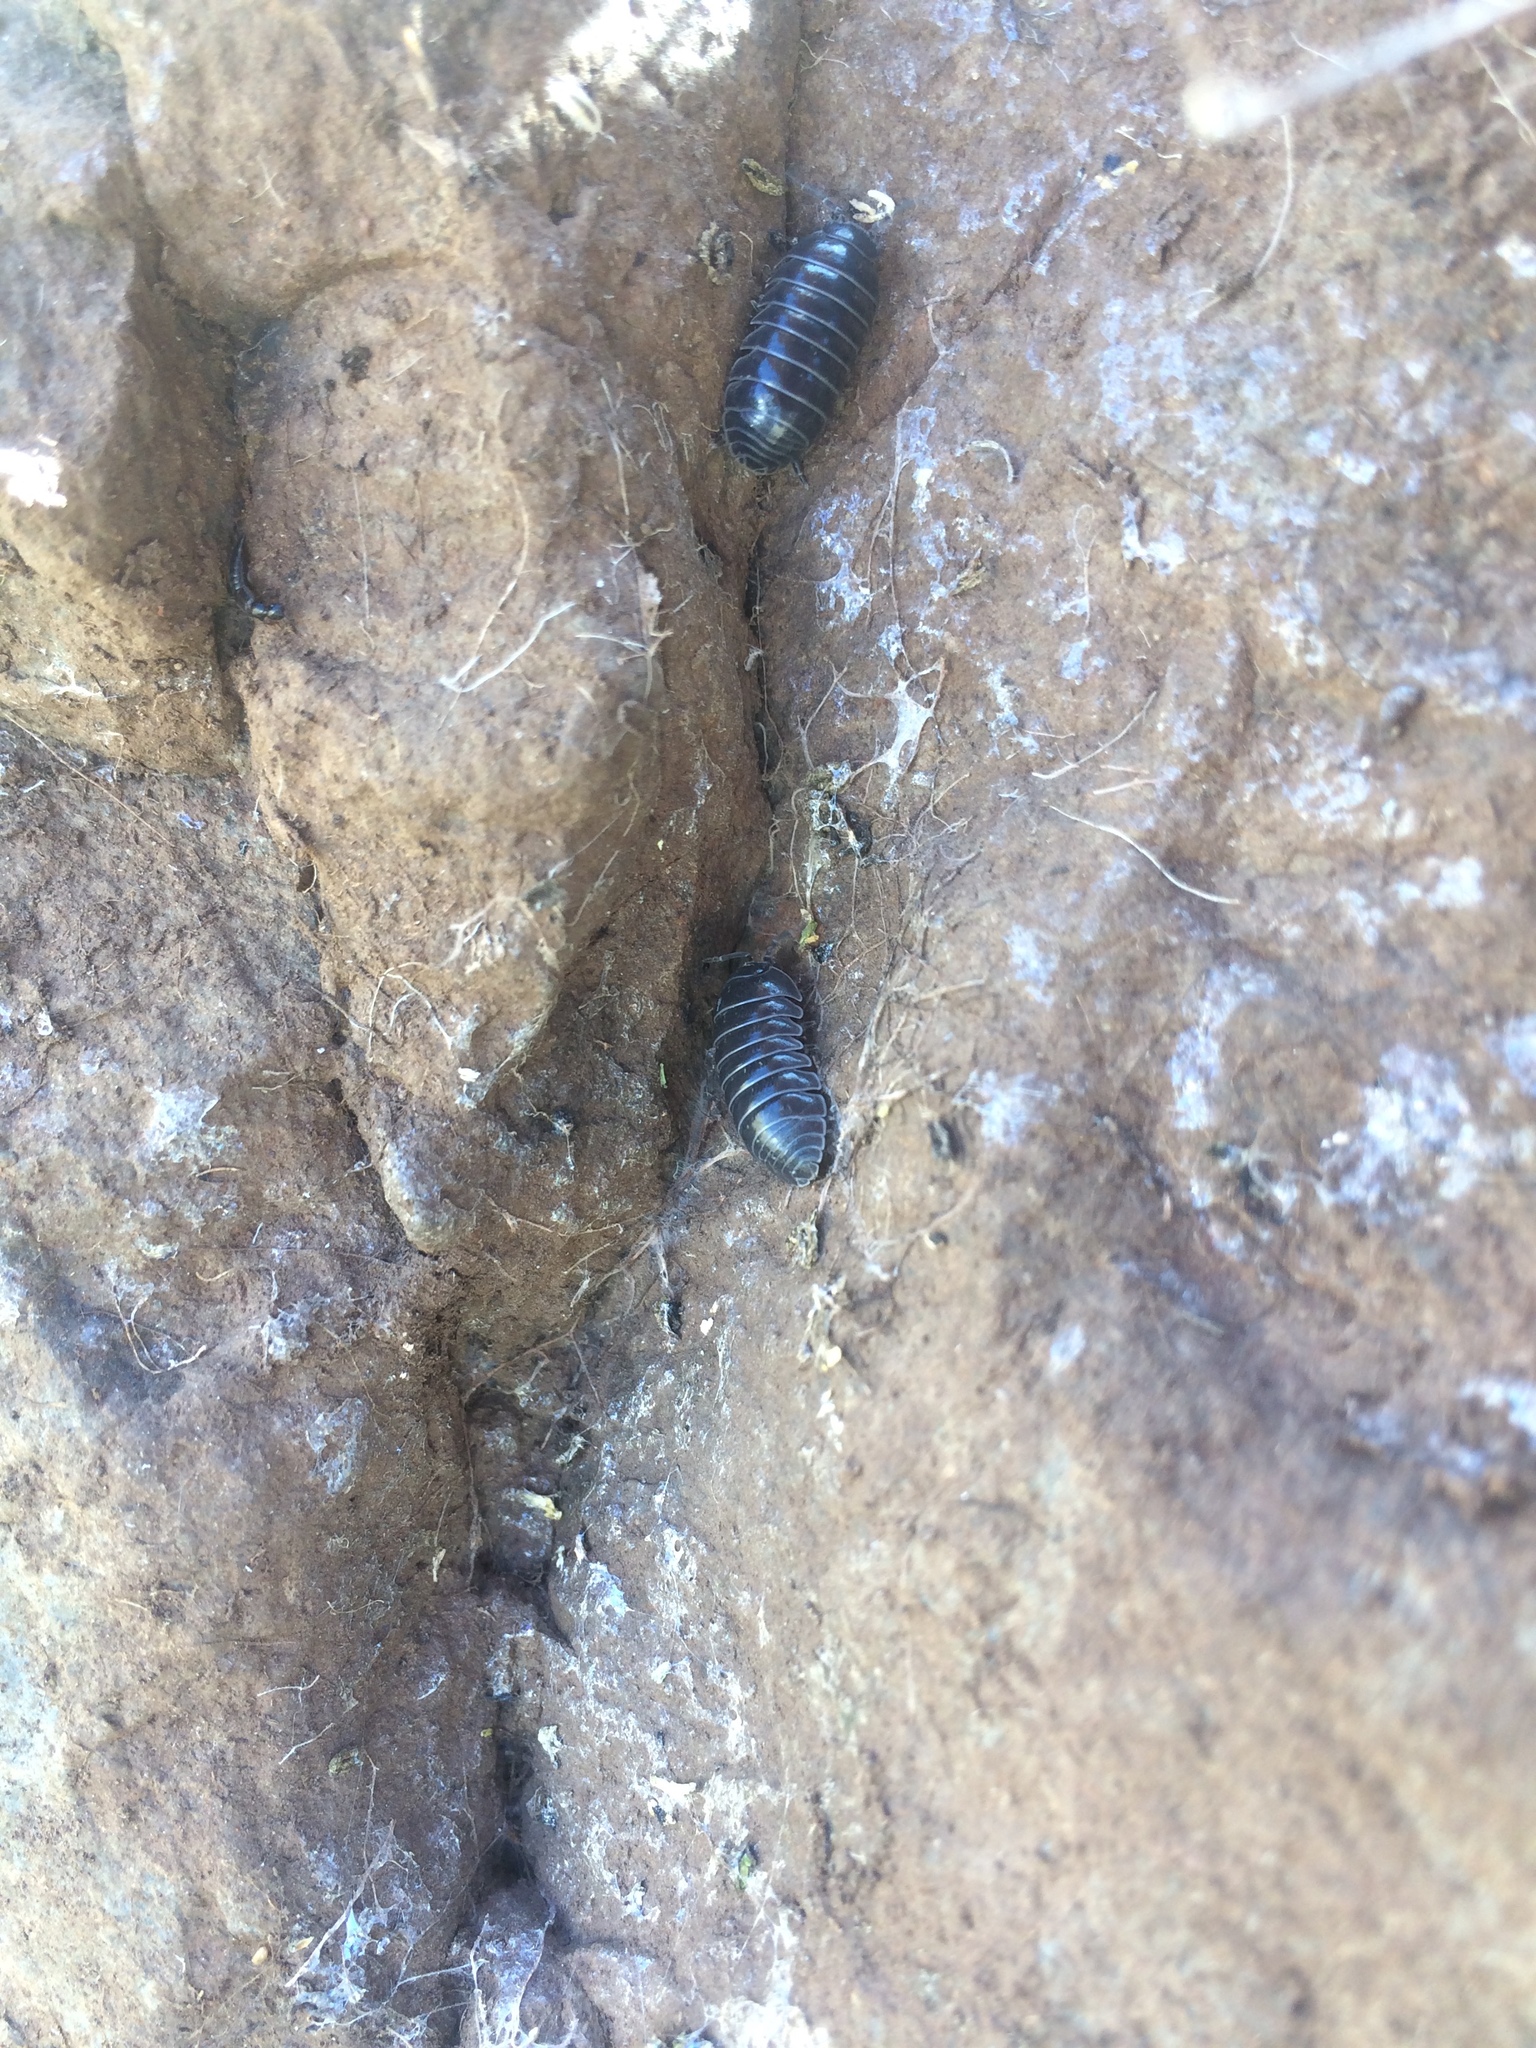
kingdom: Animalia
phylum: Arthropoda
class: Malacostraca
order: Isopoda
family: Armadillidiidae
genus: Armadillidium
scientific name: Armadillidium vulgare
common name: Common pill woodlouse
